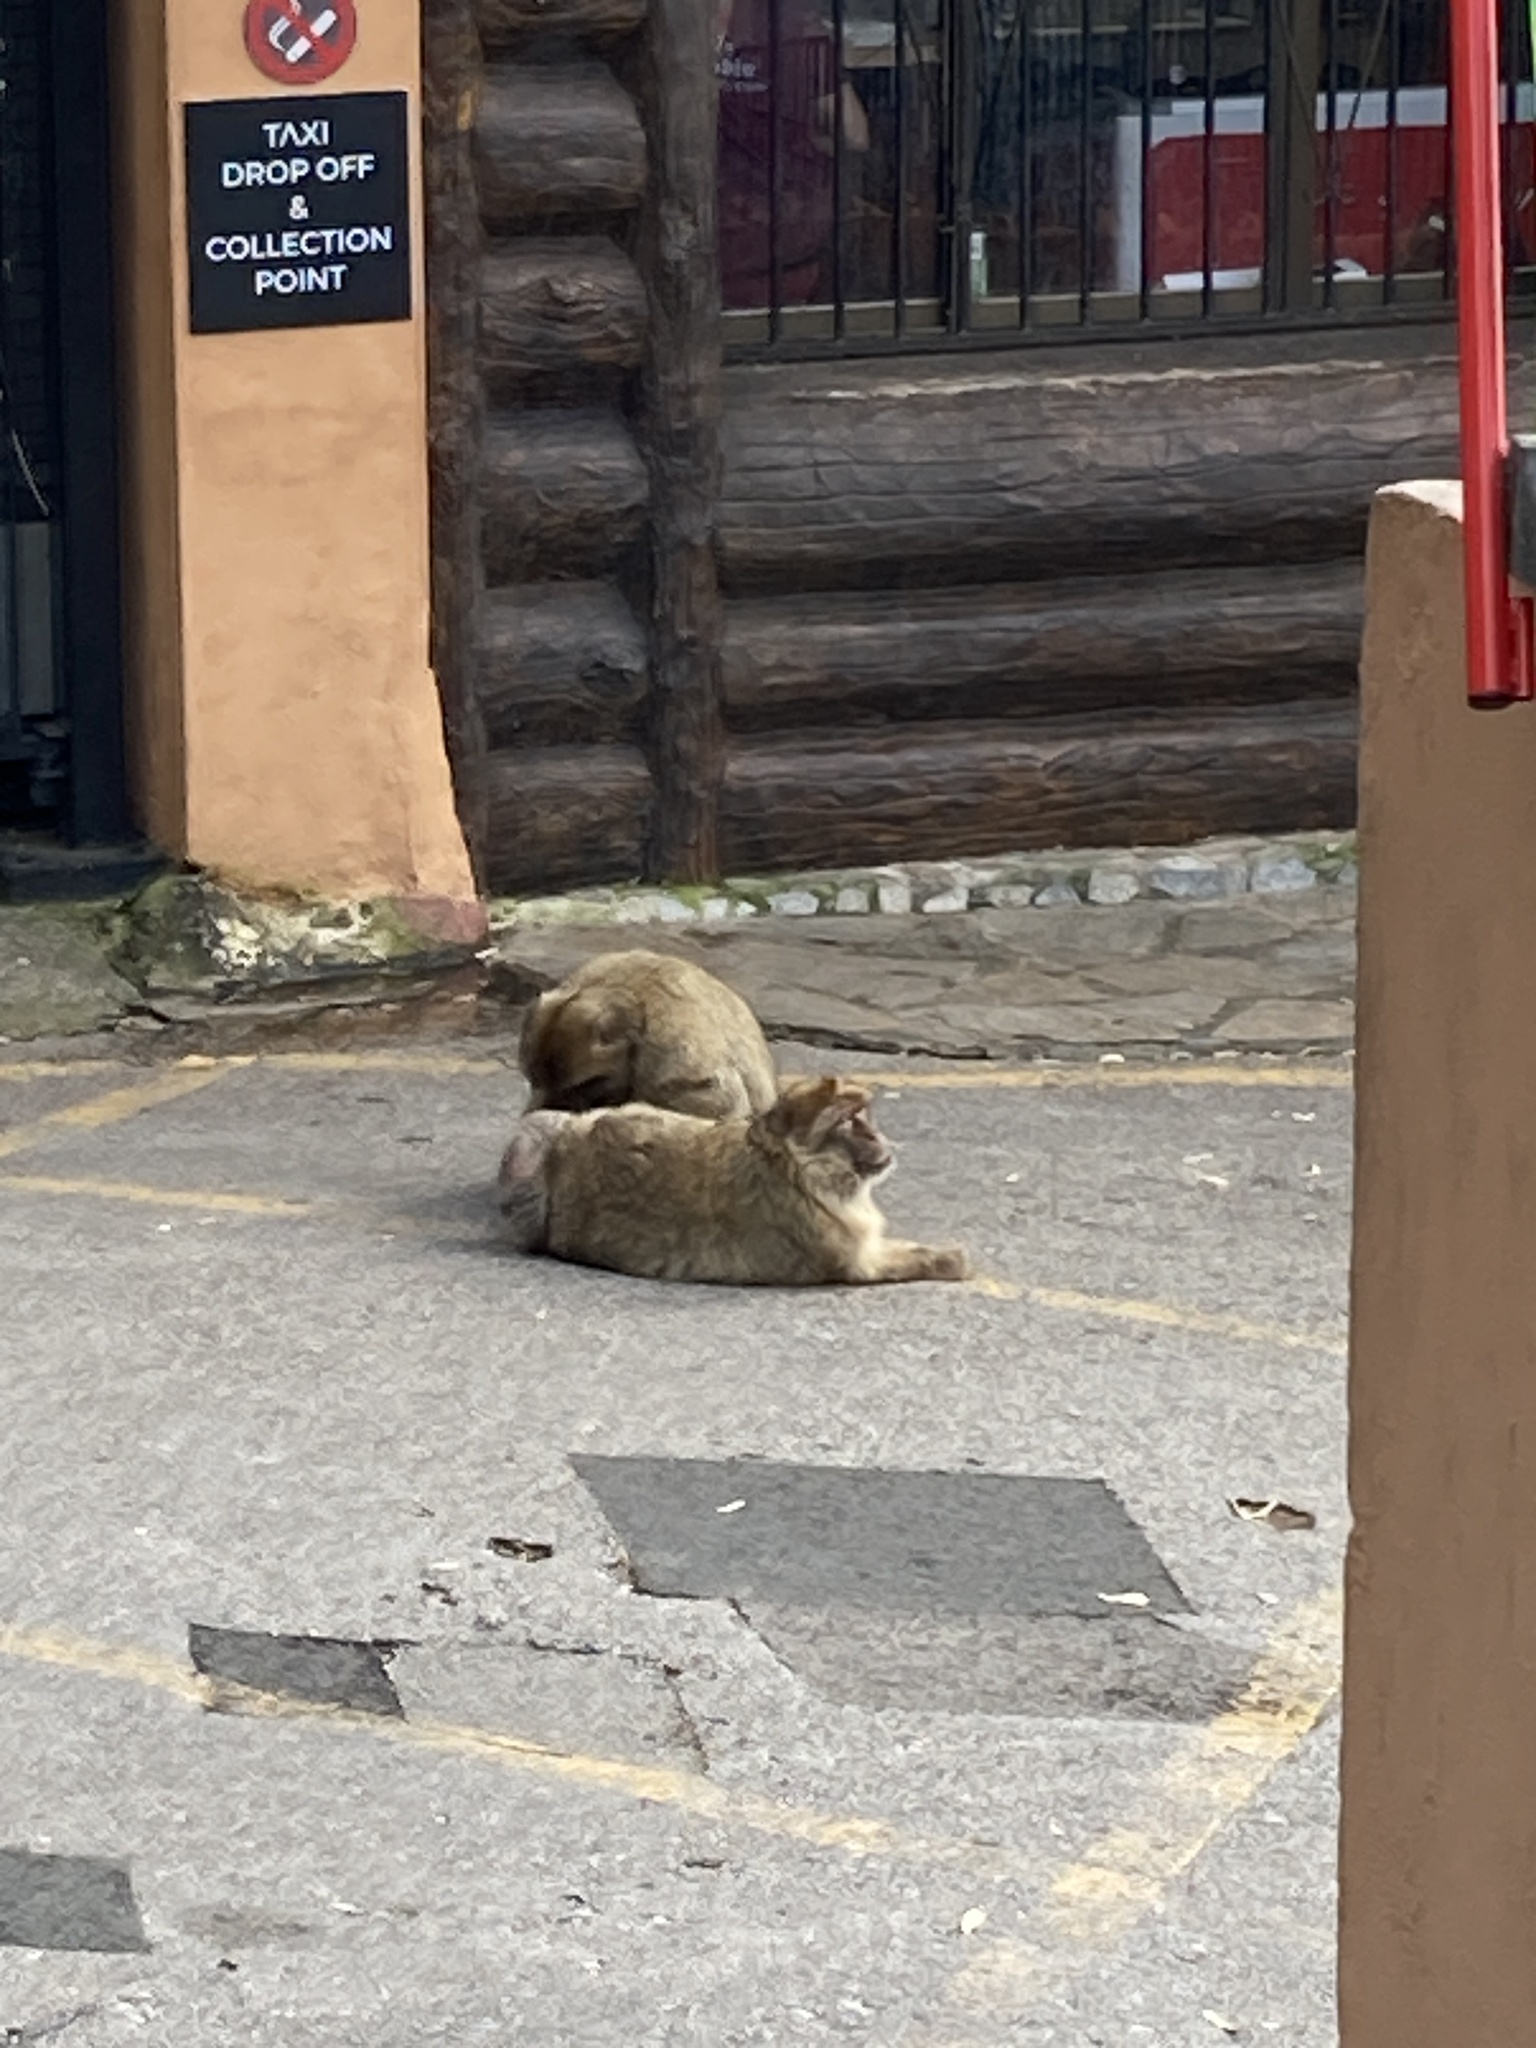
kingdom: Animalia
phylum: Chordata
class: Mammalia
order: Primates
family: Cercopithecidae
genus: Macaca
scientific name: Macaca sylvanus
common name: Barbary macaque
